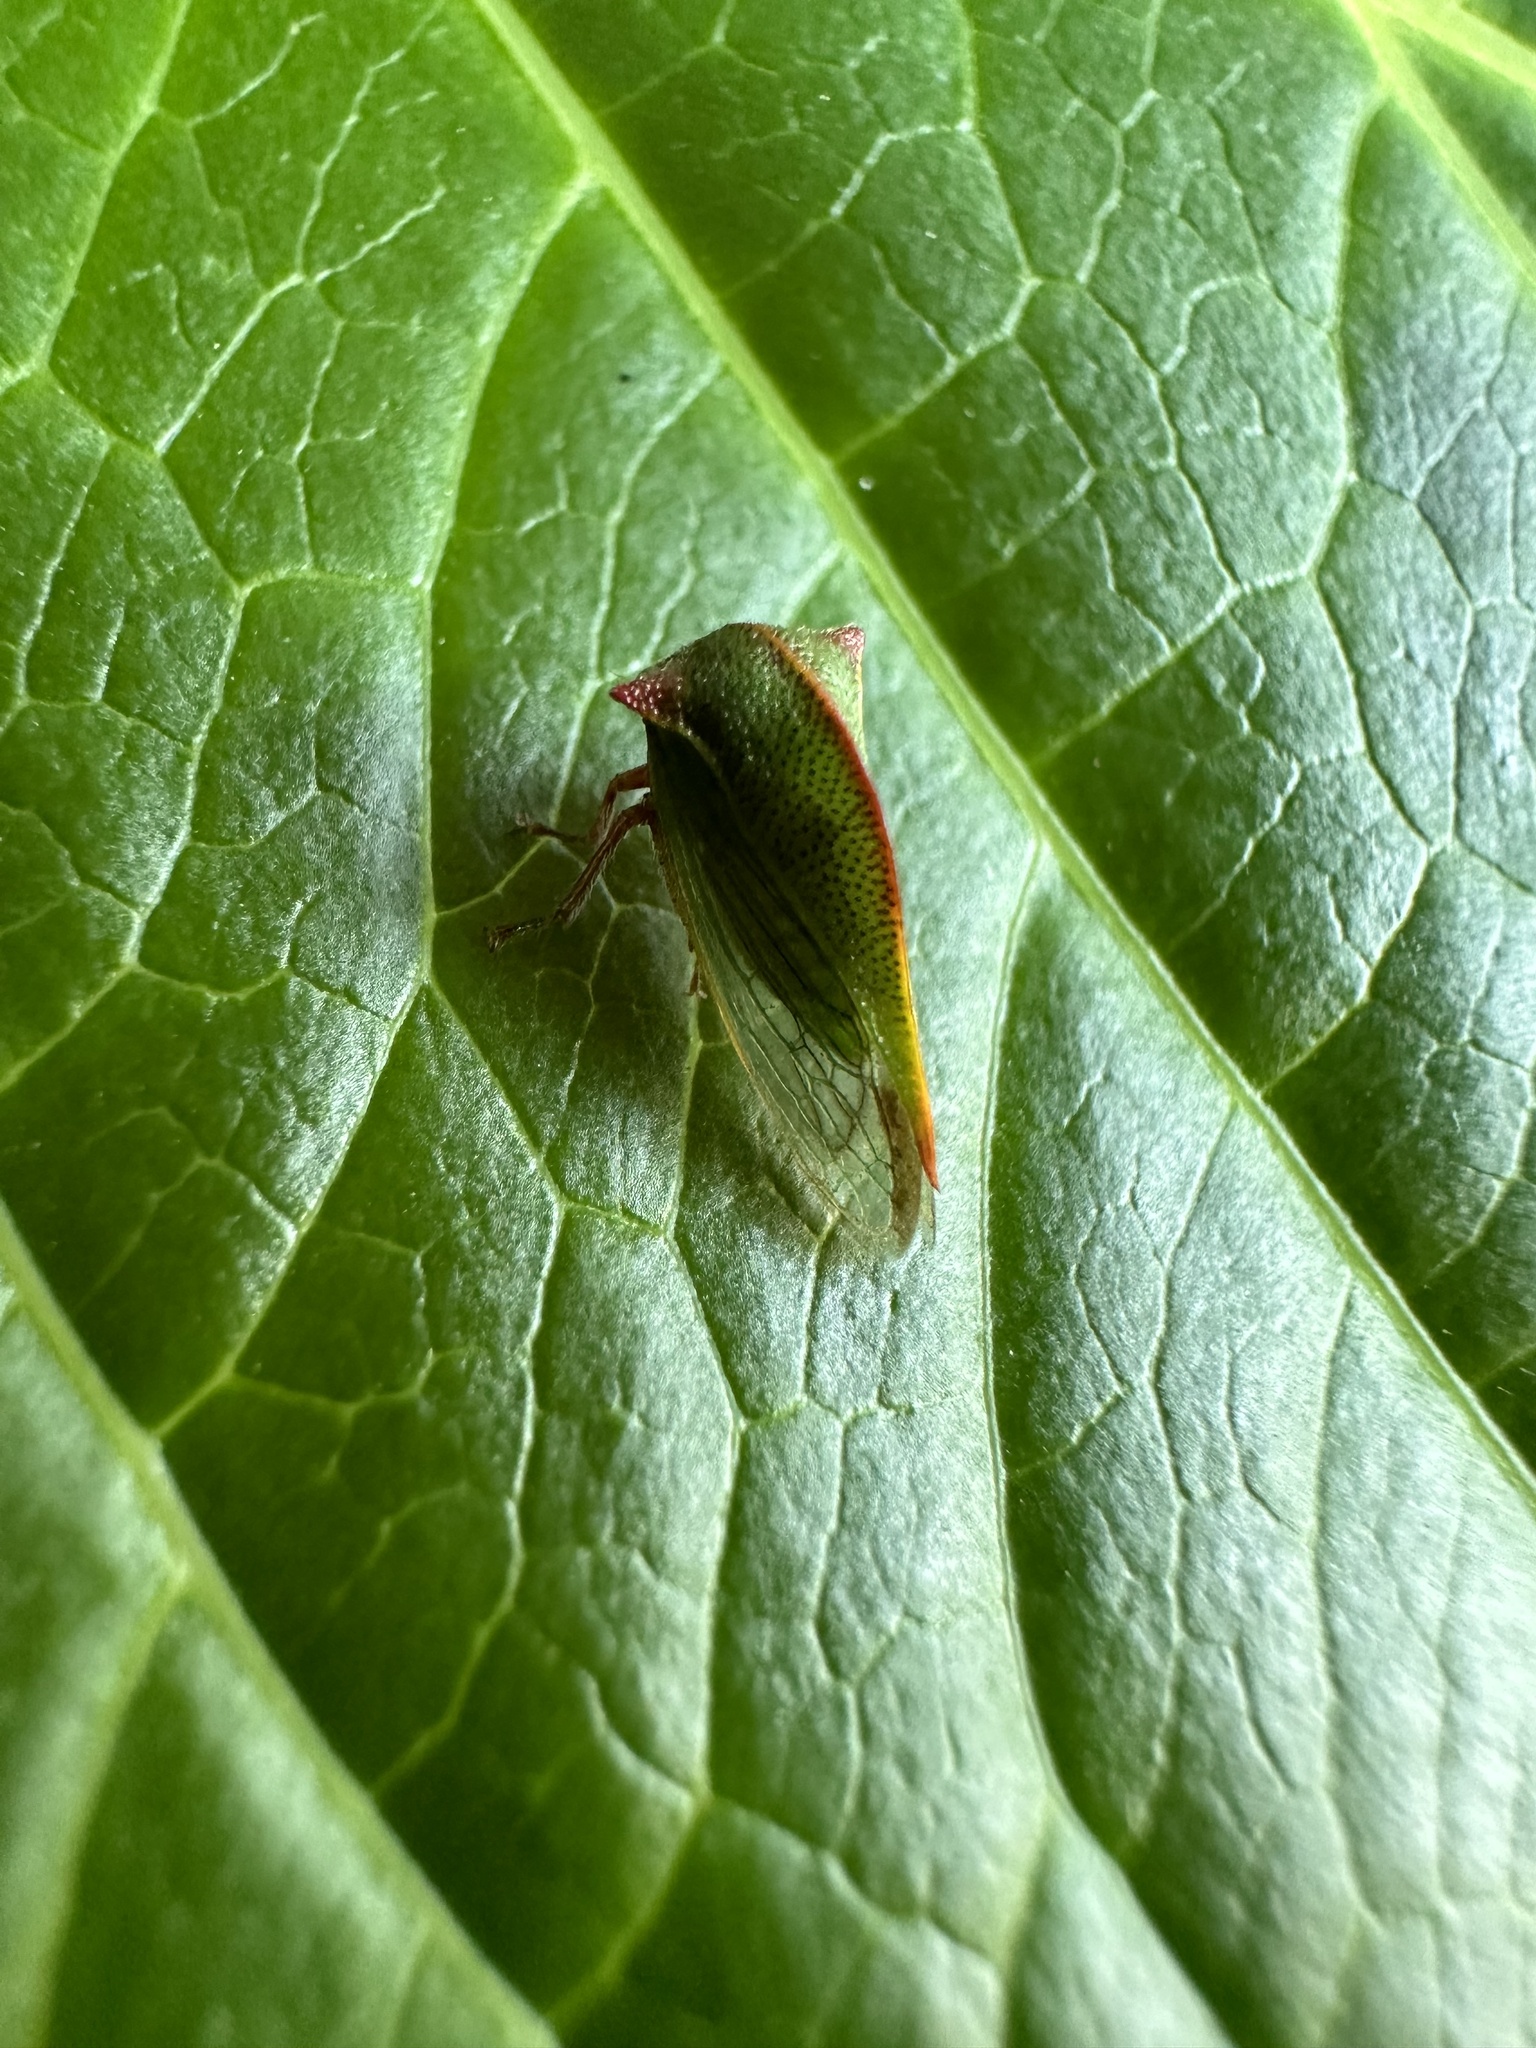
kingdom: Animalia
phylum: Arthropoda
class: Insecta
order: Hemiptera
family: Membracidae
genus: Alchisme
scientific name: Alchisme rubrocostata
